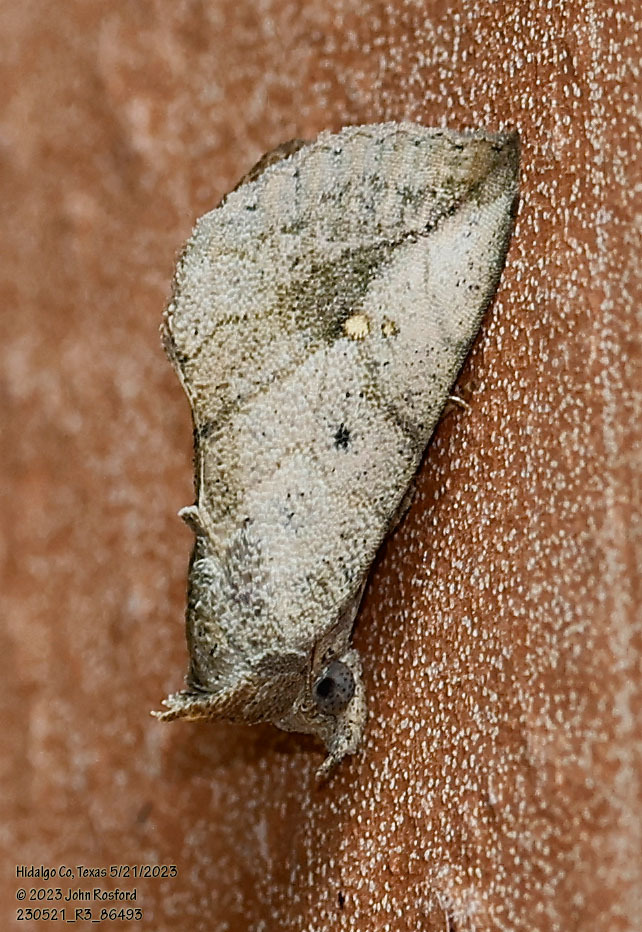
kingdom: Animalia
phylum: Arthropoda
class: Insecta
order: Lepidoptera
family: Erebidae
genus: Isogona
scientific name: Isogona snowi
